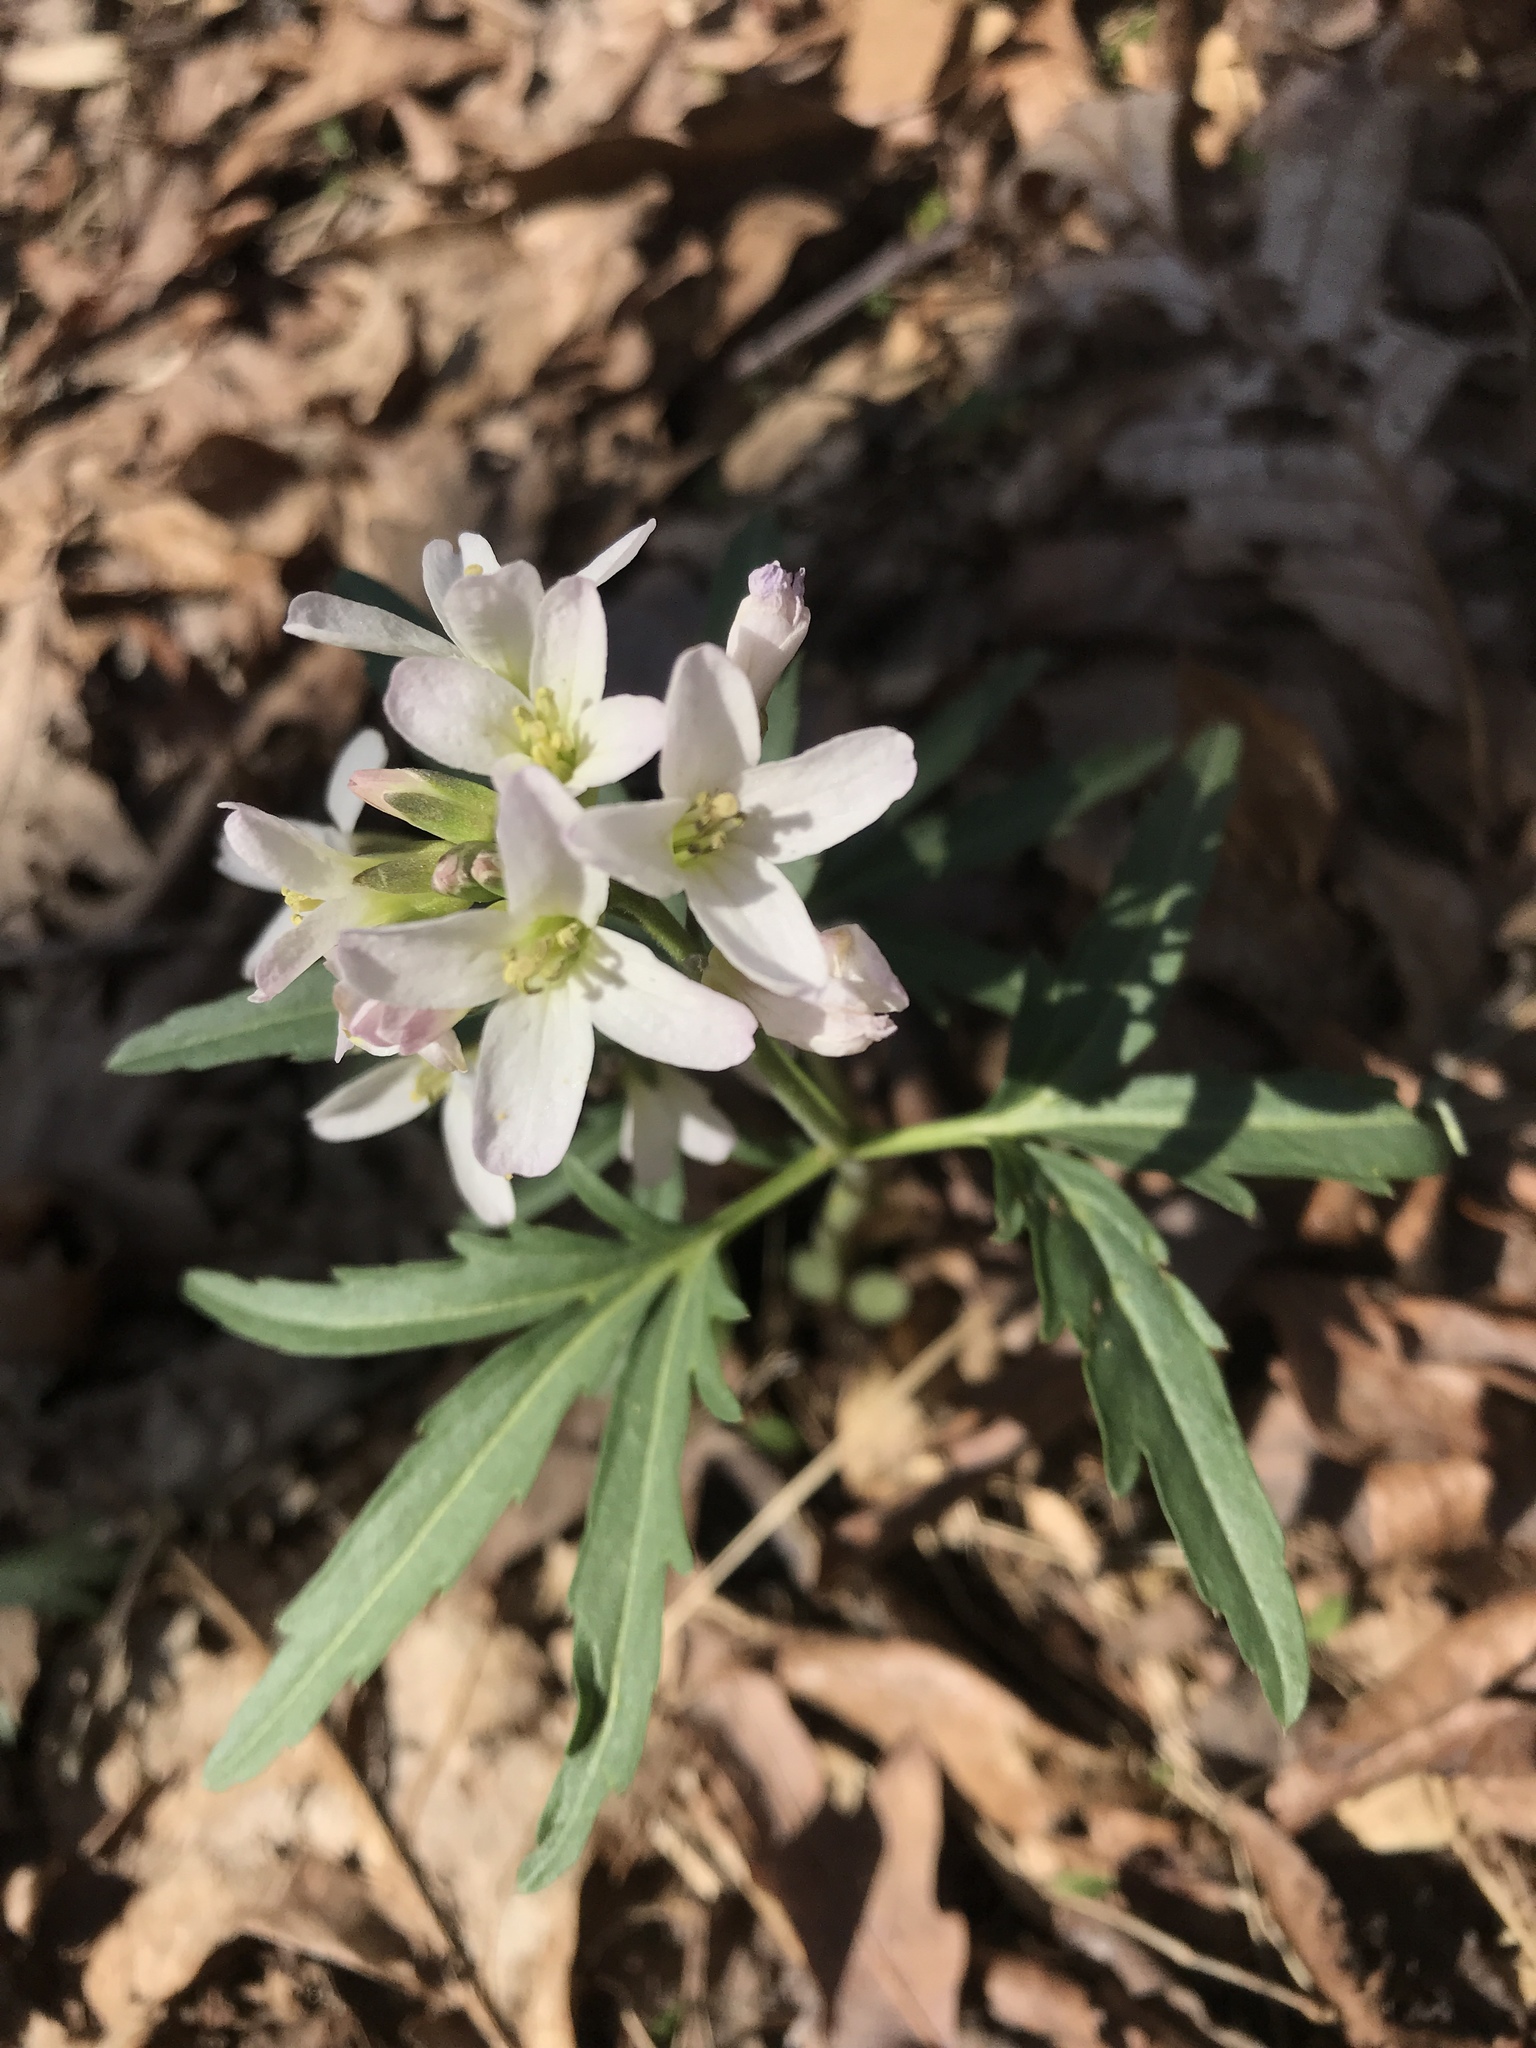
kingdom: Plantae
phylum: Tracheophyta
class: Magnoliopsida
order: Brassicales
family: Brassicaceae
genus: Cardamine
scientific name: Cardamine concatenata
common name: Cut-leaf toothcup
